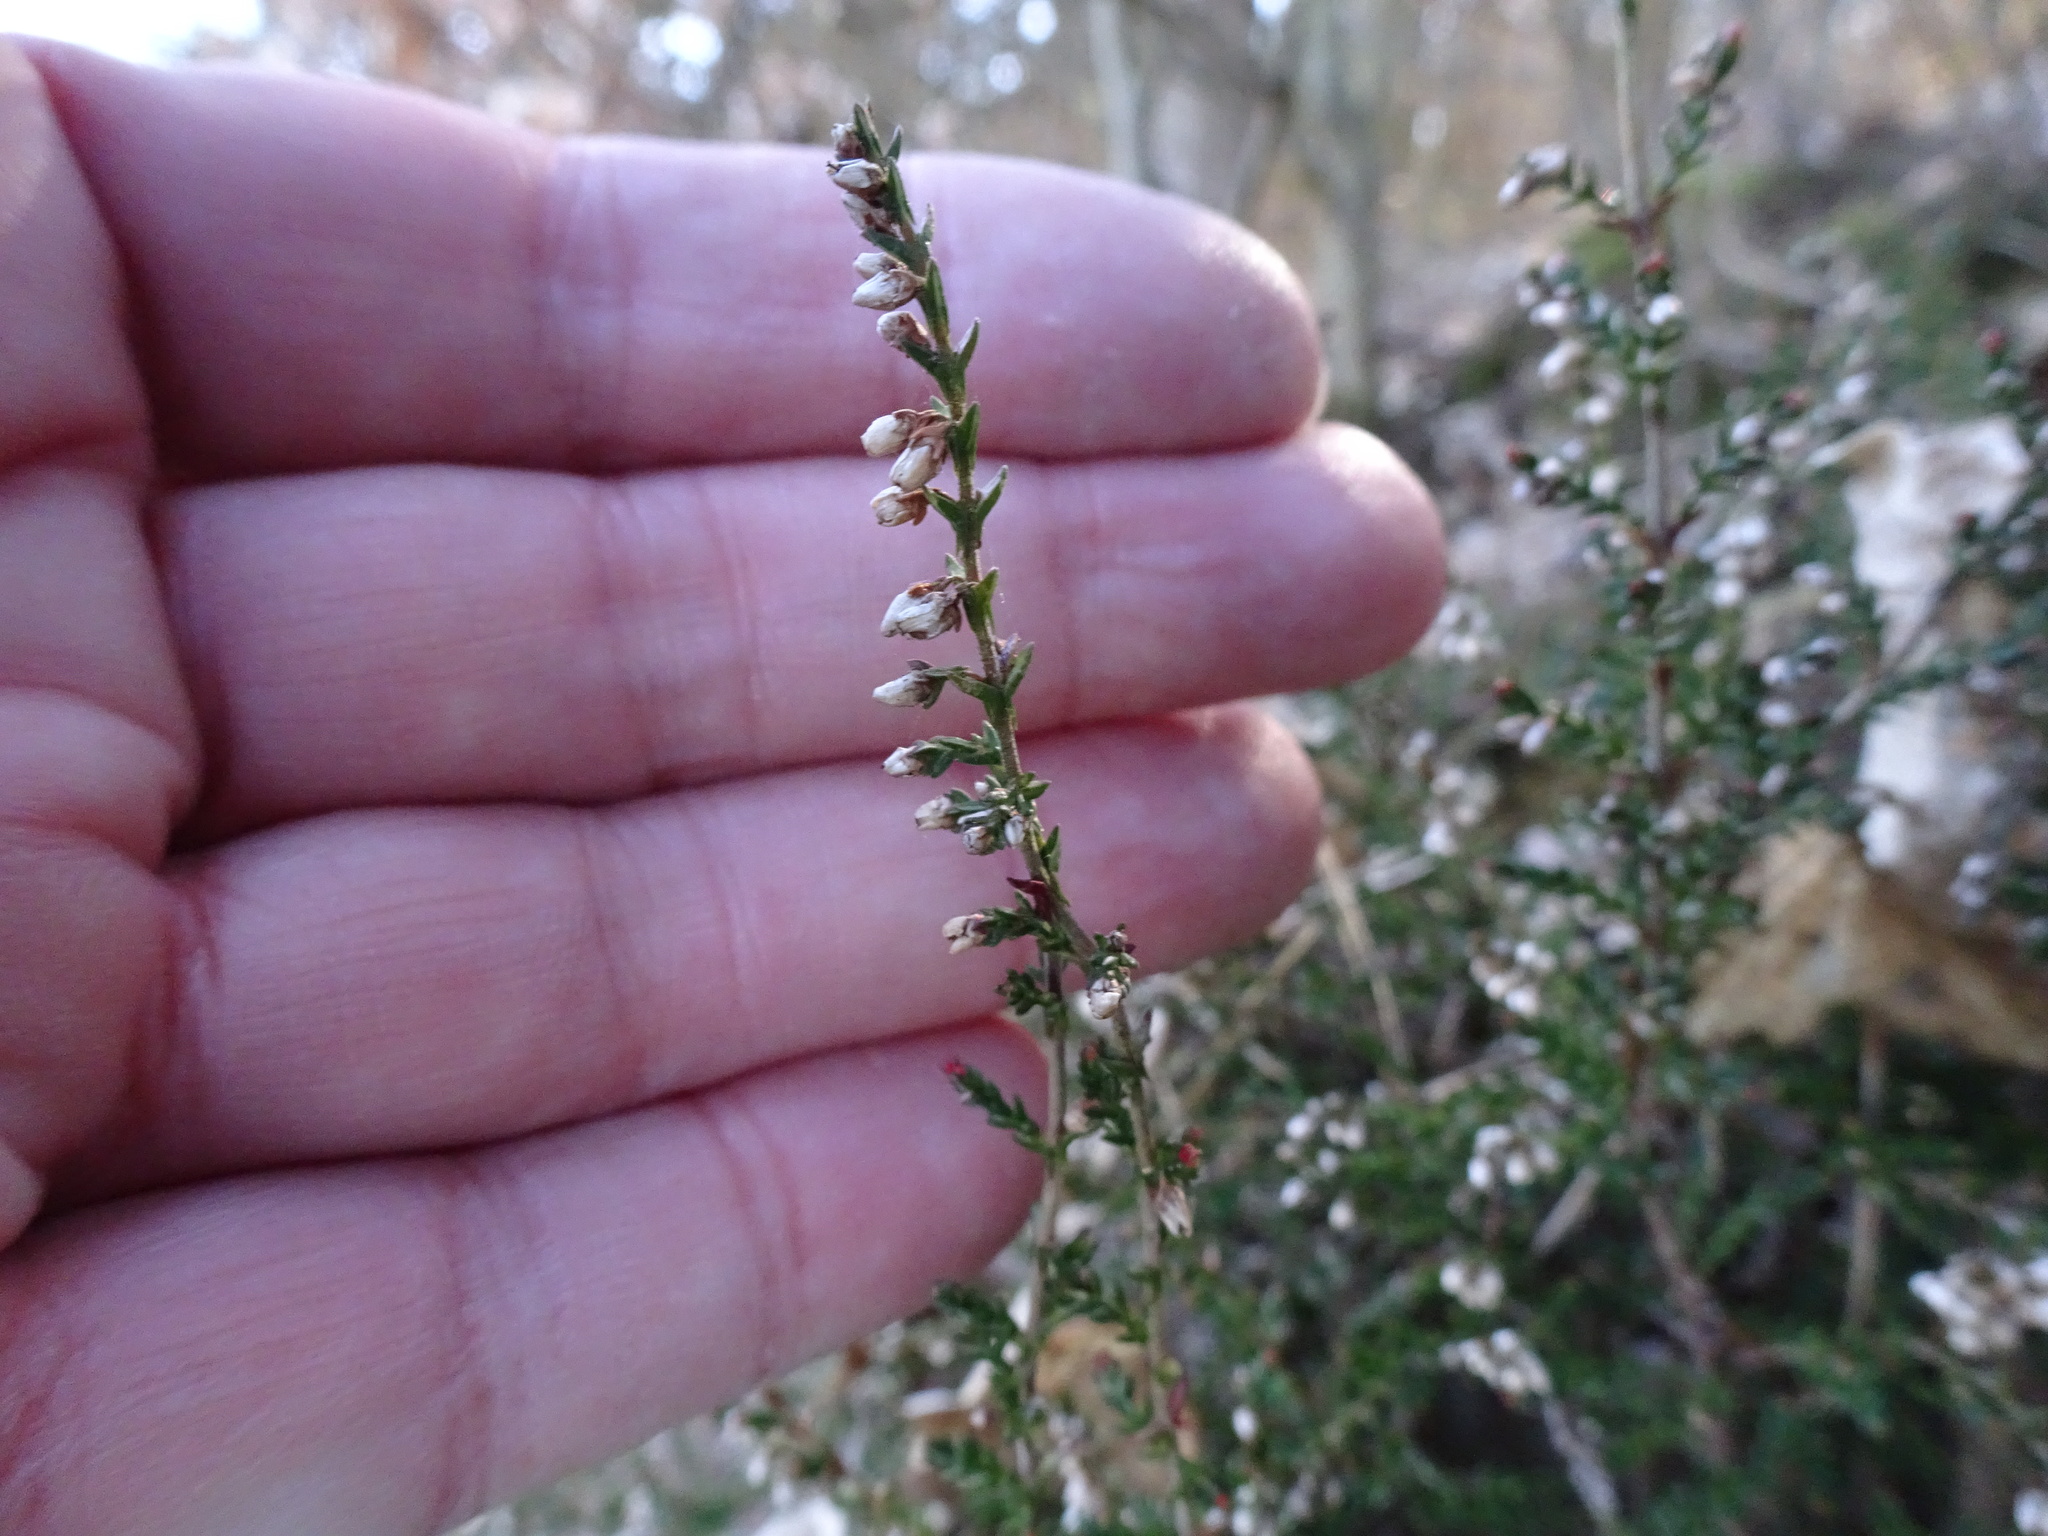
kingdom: Plantae
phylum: Tracheophyta
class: Magnoliopsida
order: Ericales
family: Ericaceae
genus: Calluna
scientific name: Calluna vulgaris
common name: Heather
